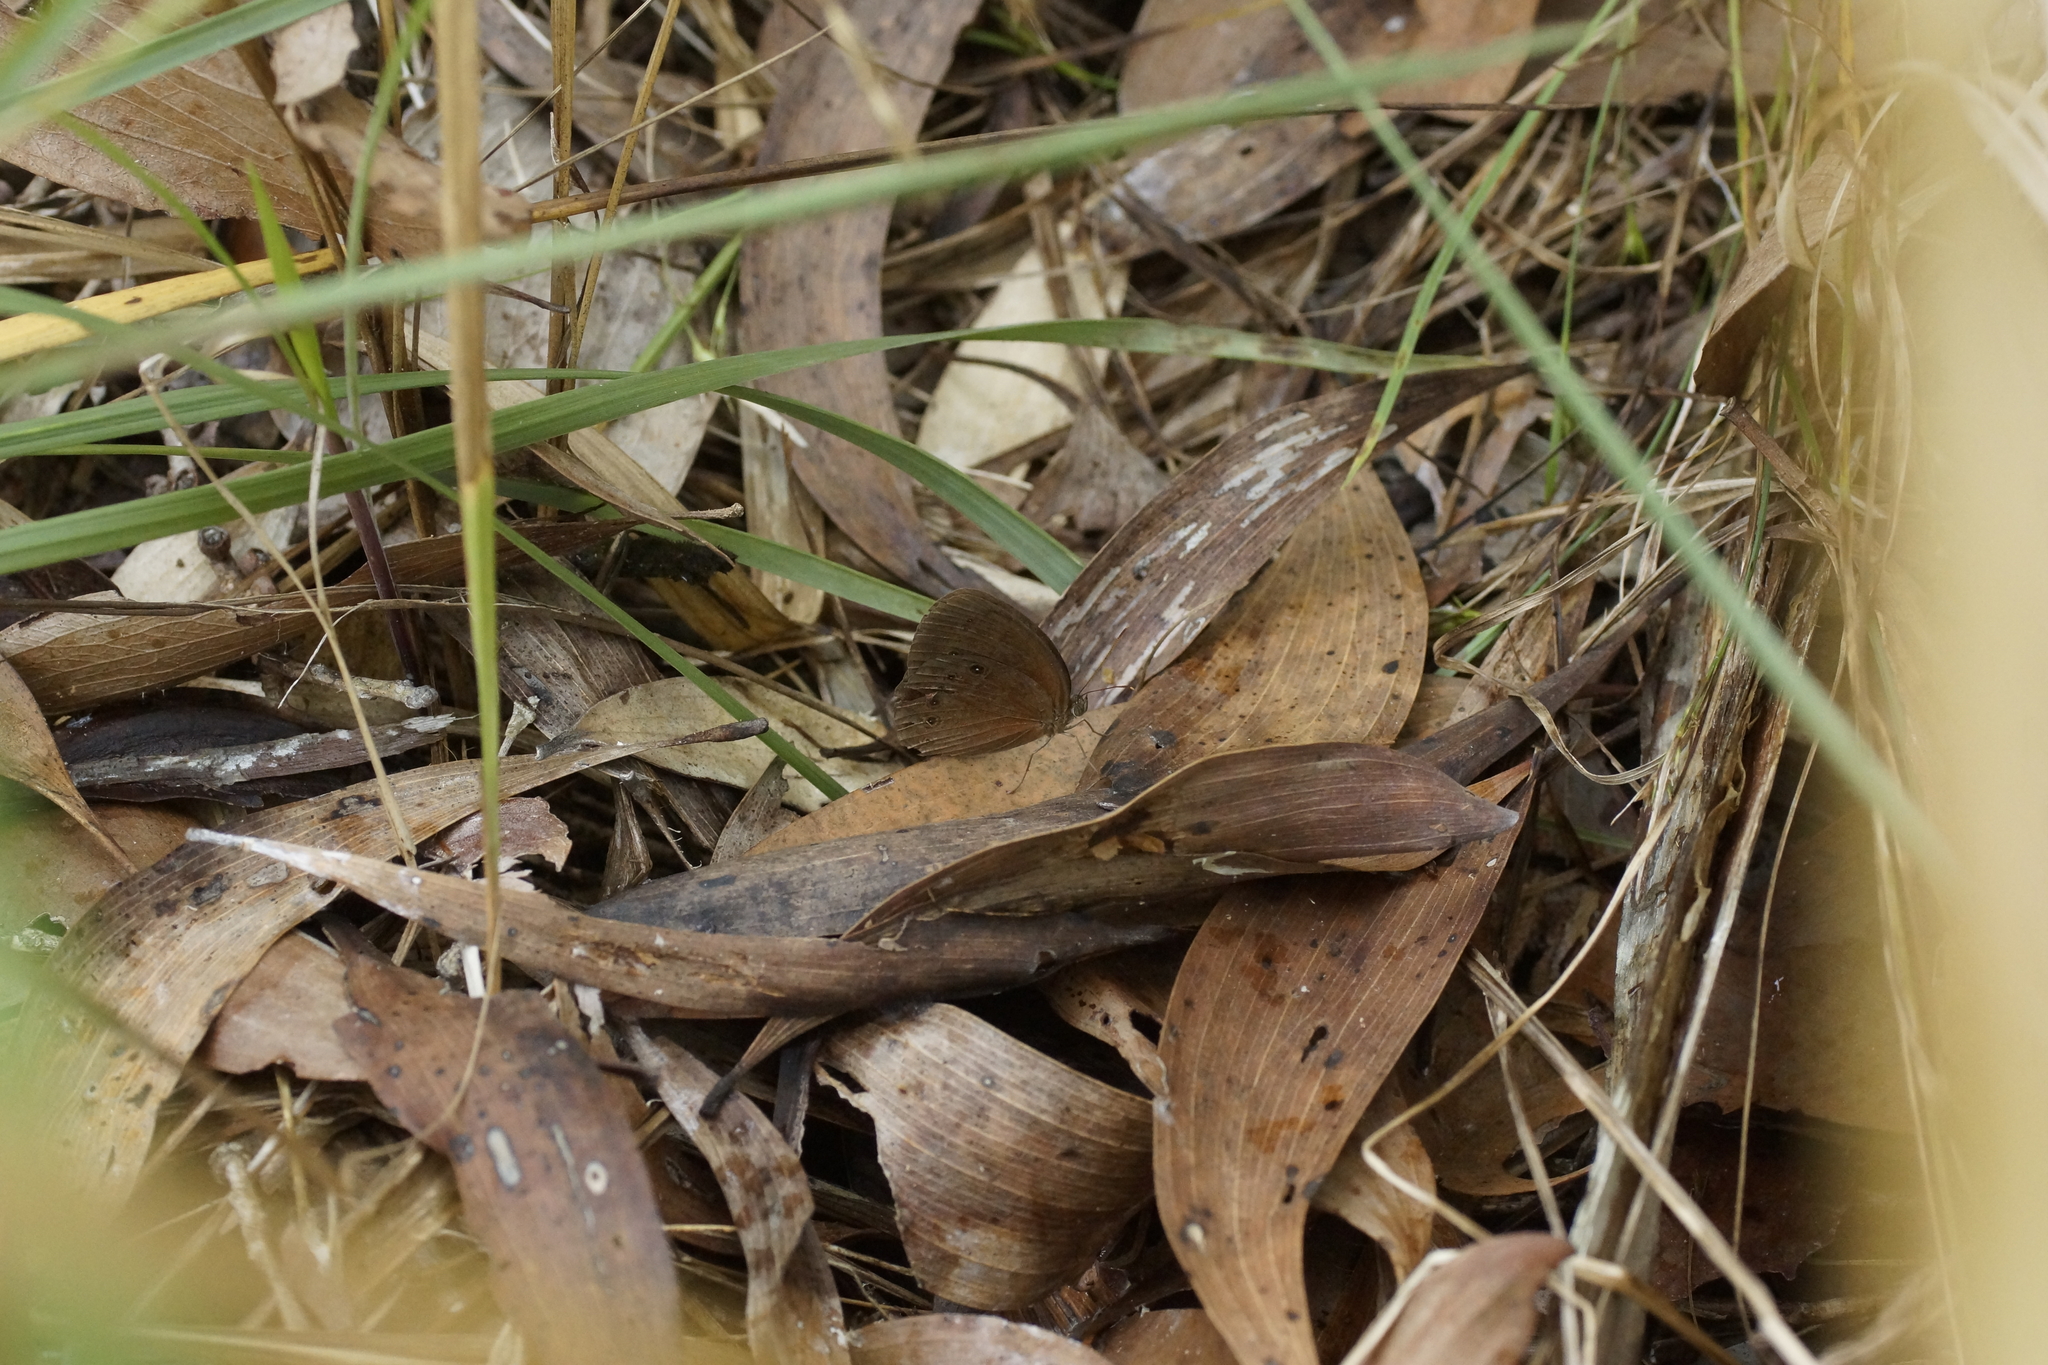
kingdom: Animalia
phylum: Arthropoda
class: Insecta
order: Lepidoptera
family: Nymphalidae
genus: Mycalesis
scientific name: Mycalesis perseus
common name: Dingy bushbrown
